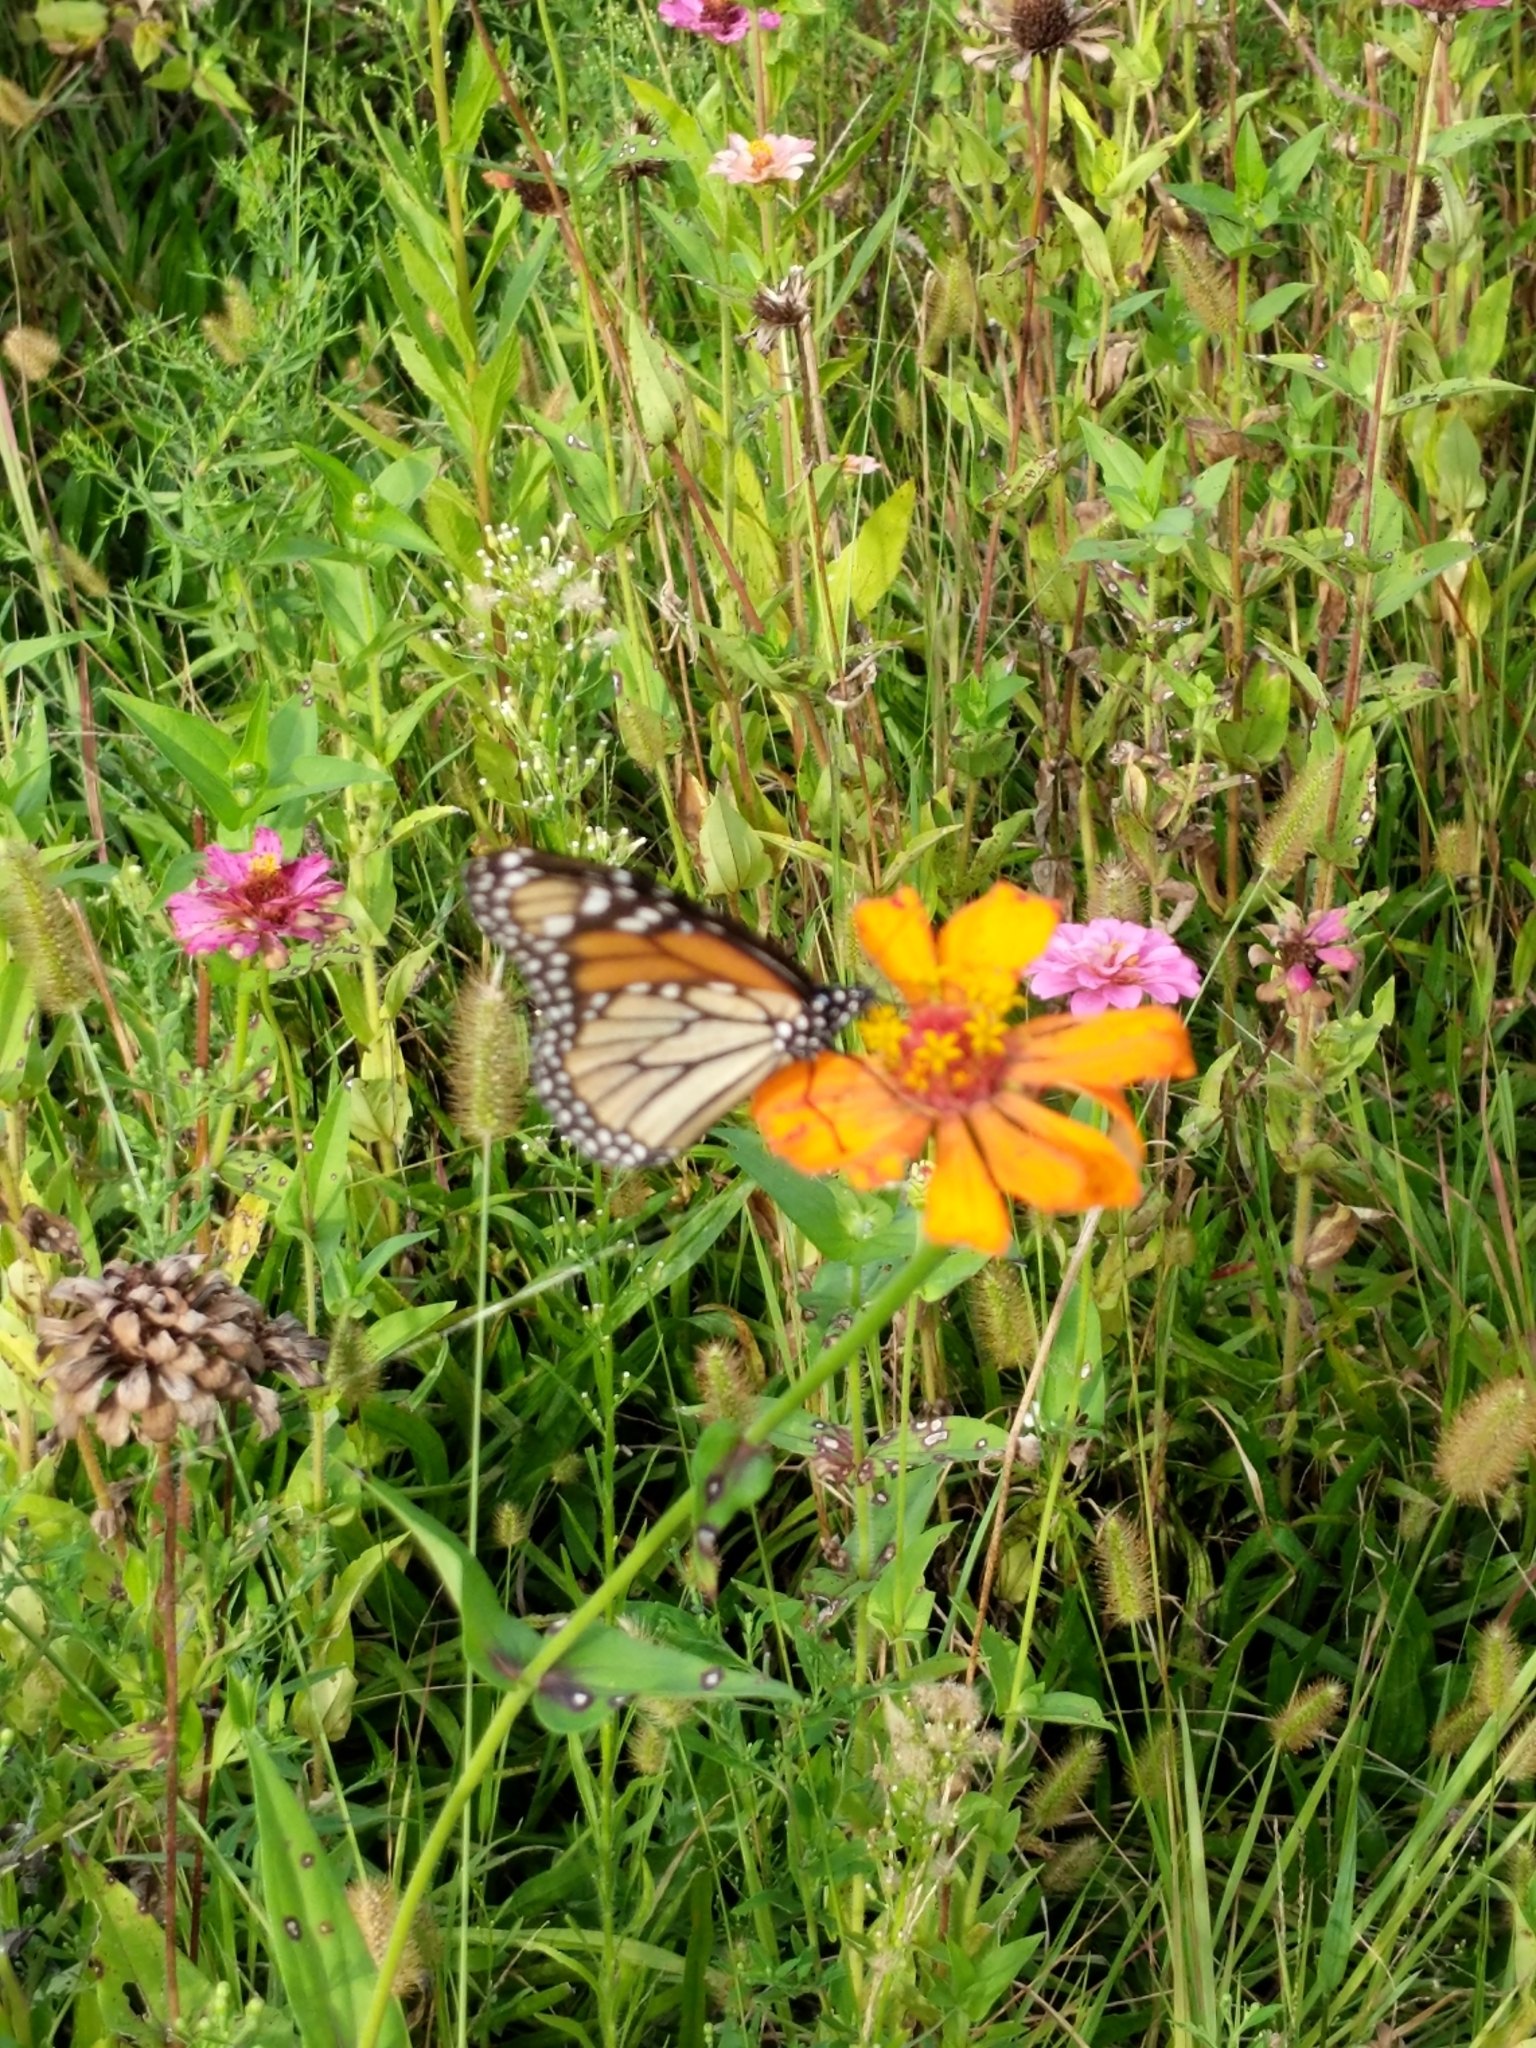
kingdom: Animalia
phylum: Arthropoda
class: Insecta
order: Lepidoptera
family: Nymphalidae
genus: Danaus
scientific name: Danaus plexippus
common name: Monarch
